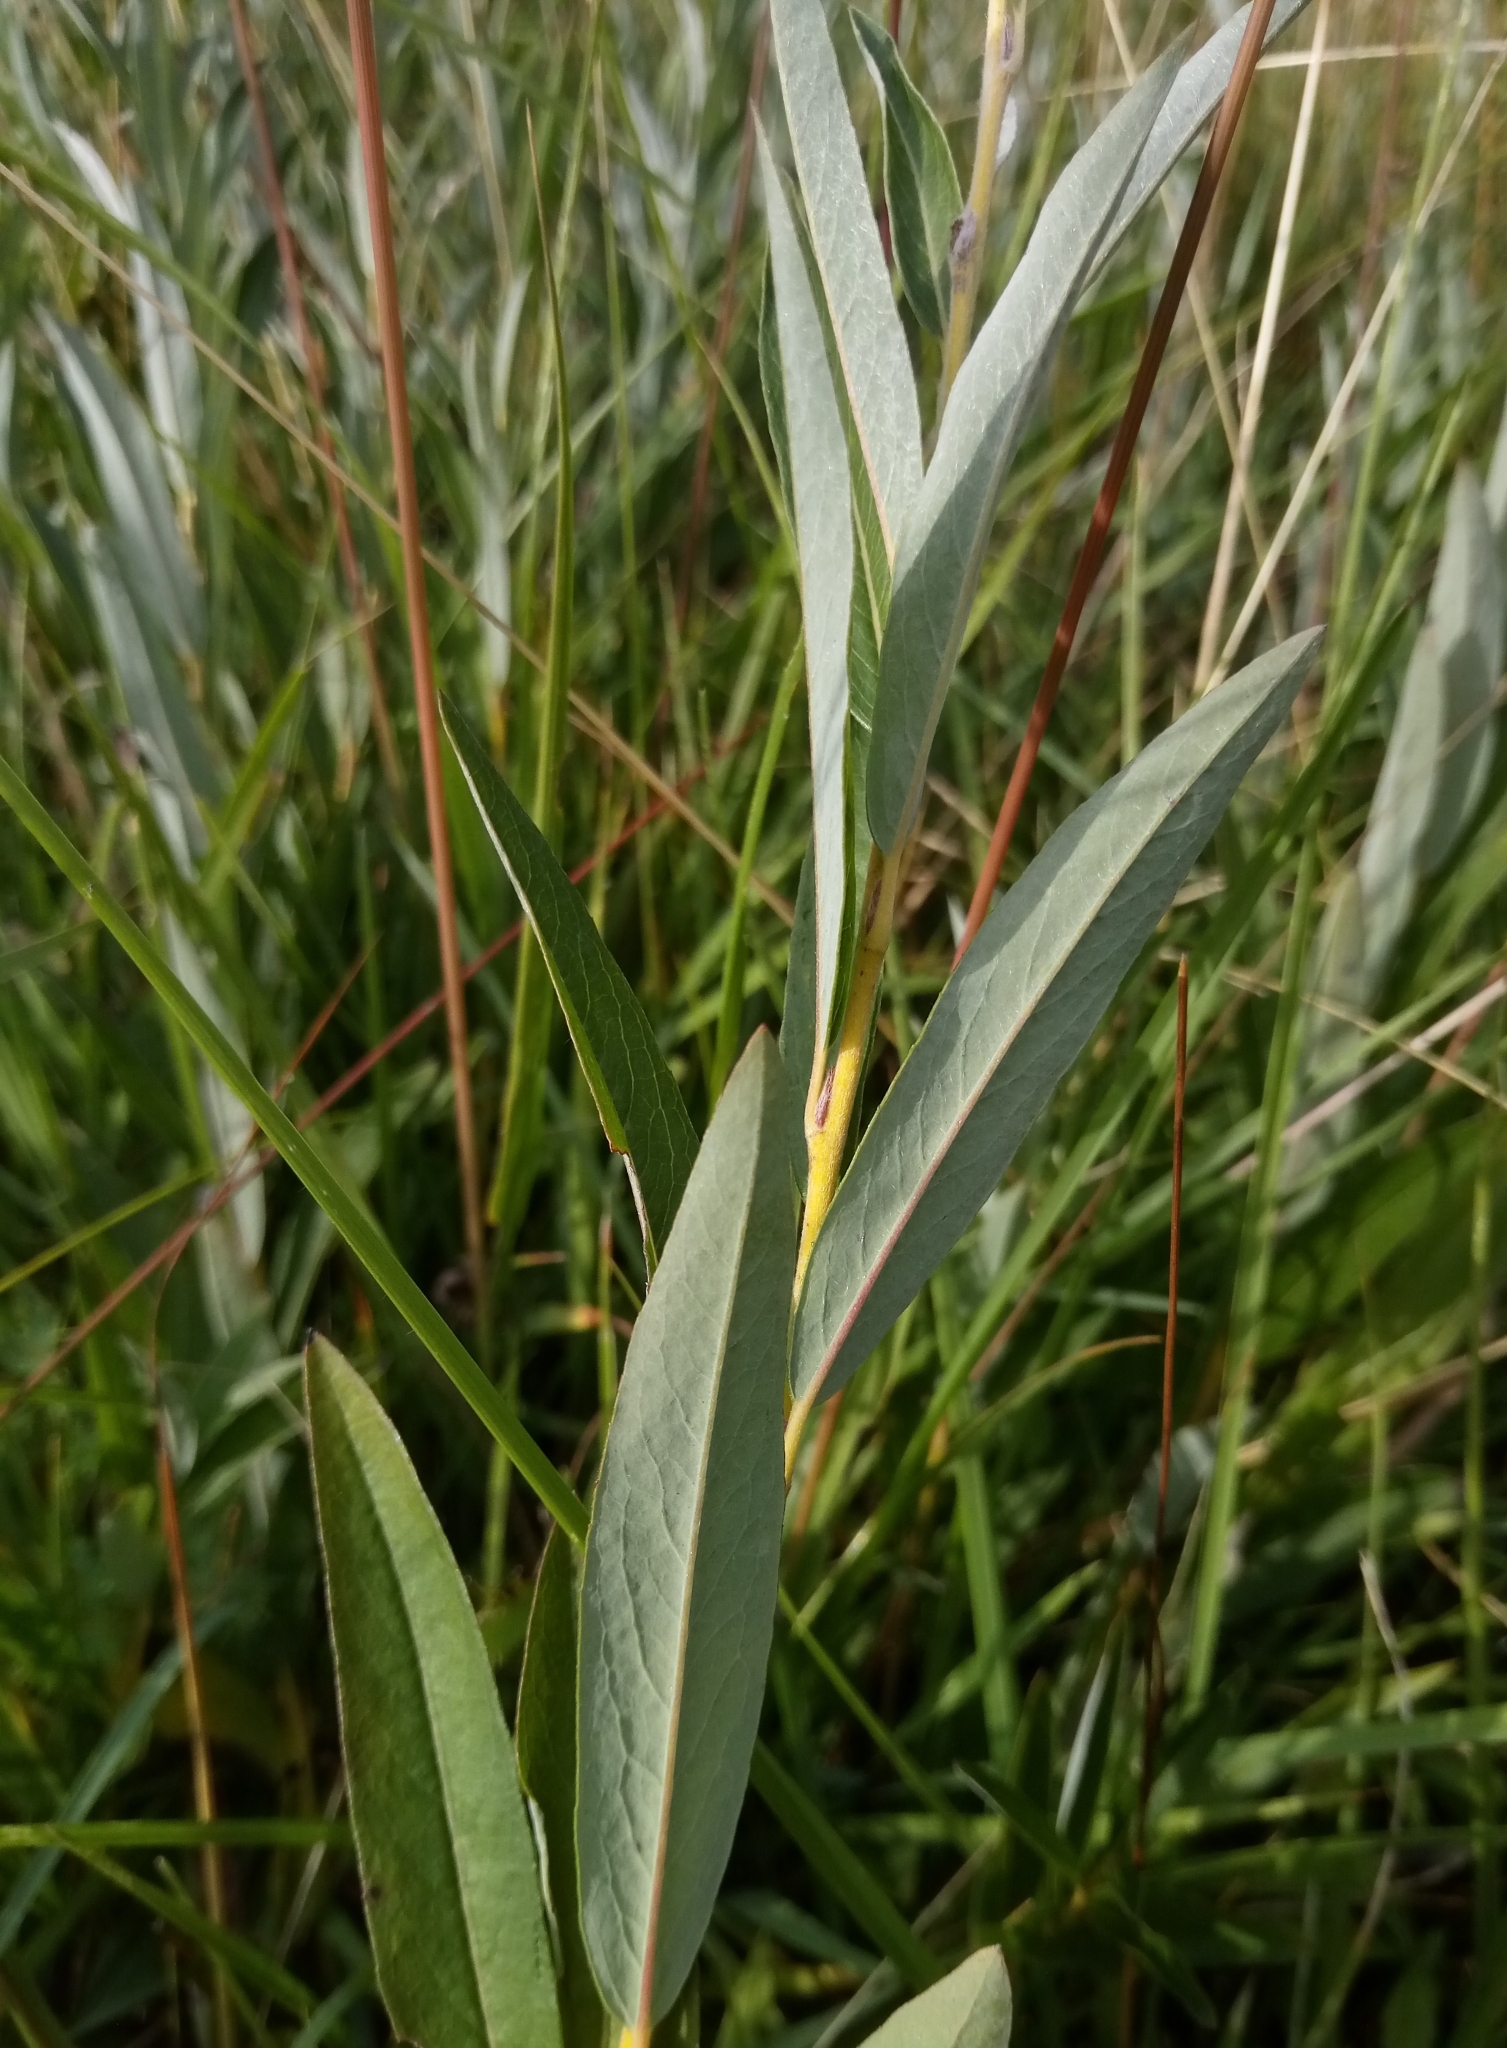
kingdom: Plantae
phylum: Tracheophyta
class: Magnoliopsida
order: Malpighiales
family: Salicaceae
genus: Salix
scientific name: Salix rosmarinifolia
